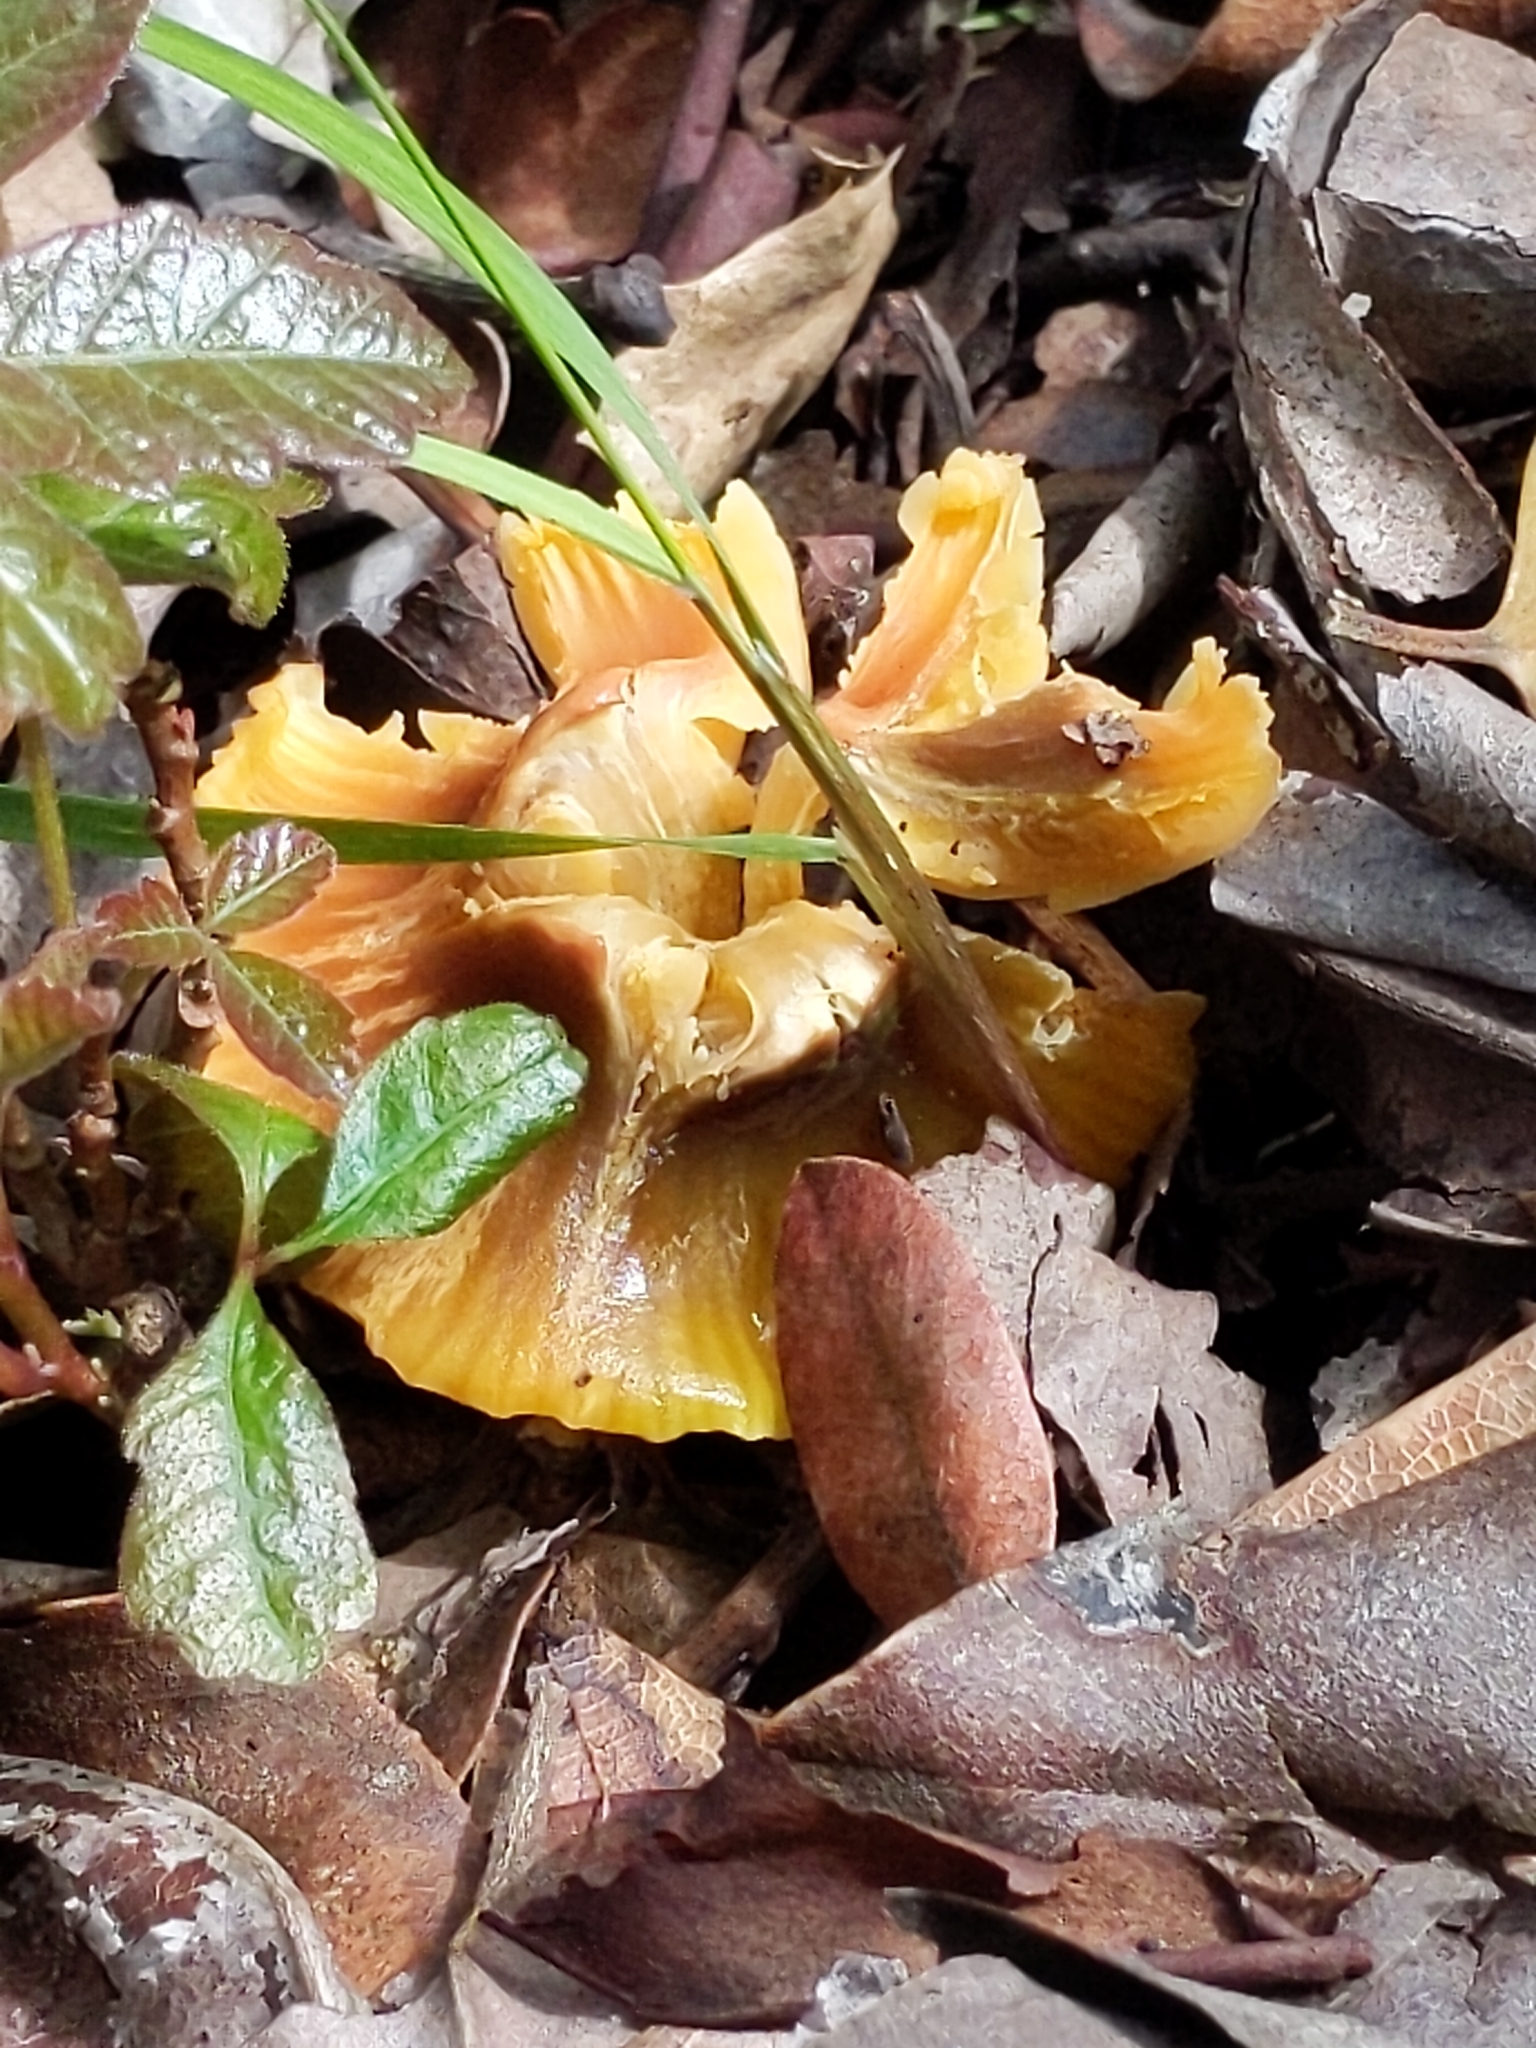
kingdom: Fungi
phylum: Basidiomycota
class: Agaricomycetes
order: Agaricales
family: Hygrophoraceae
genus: Gliophorus
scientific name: Gliophorus psittacinus
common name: Parrot wax-cap
